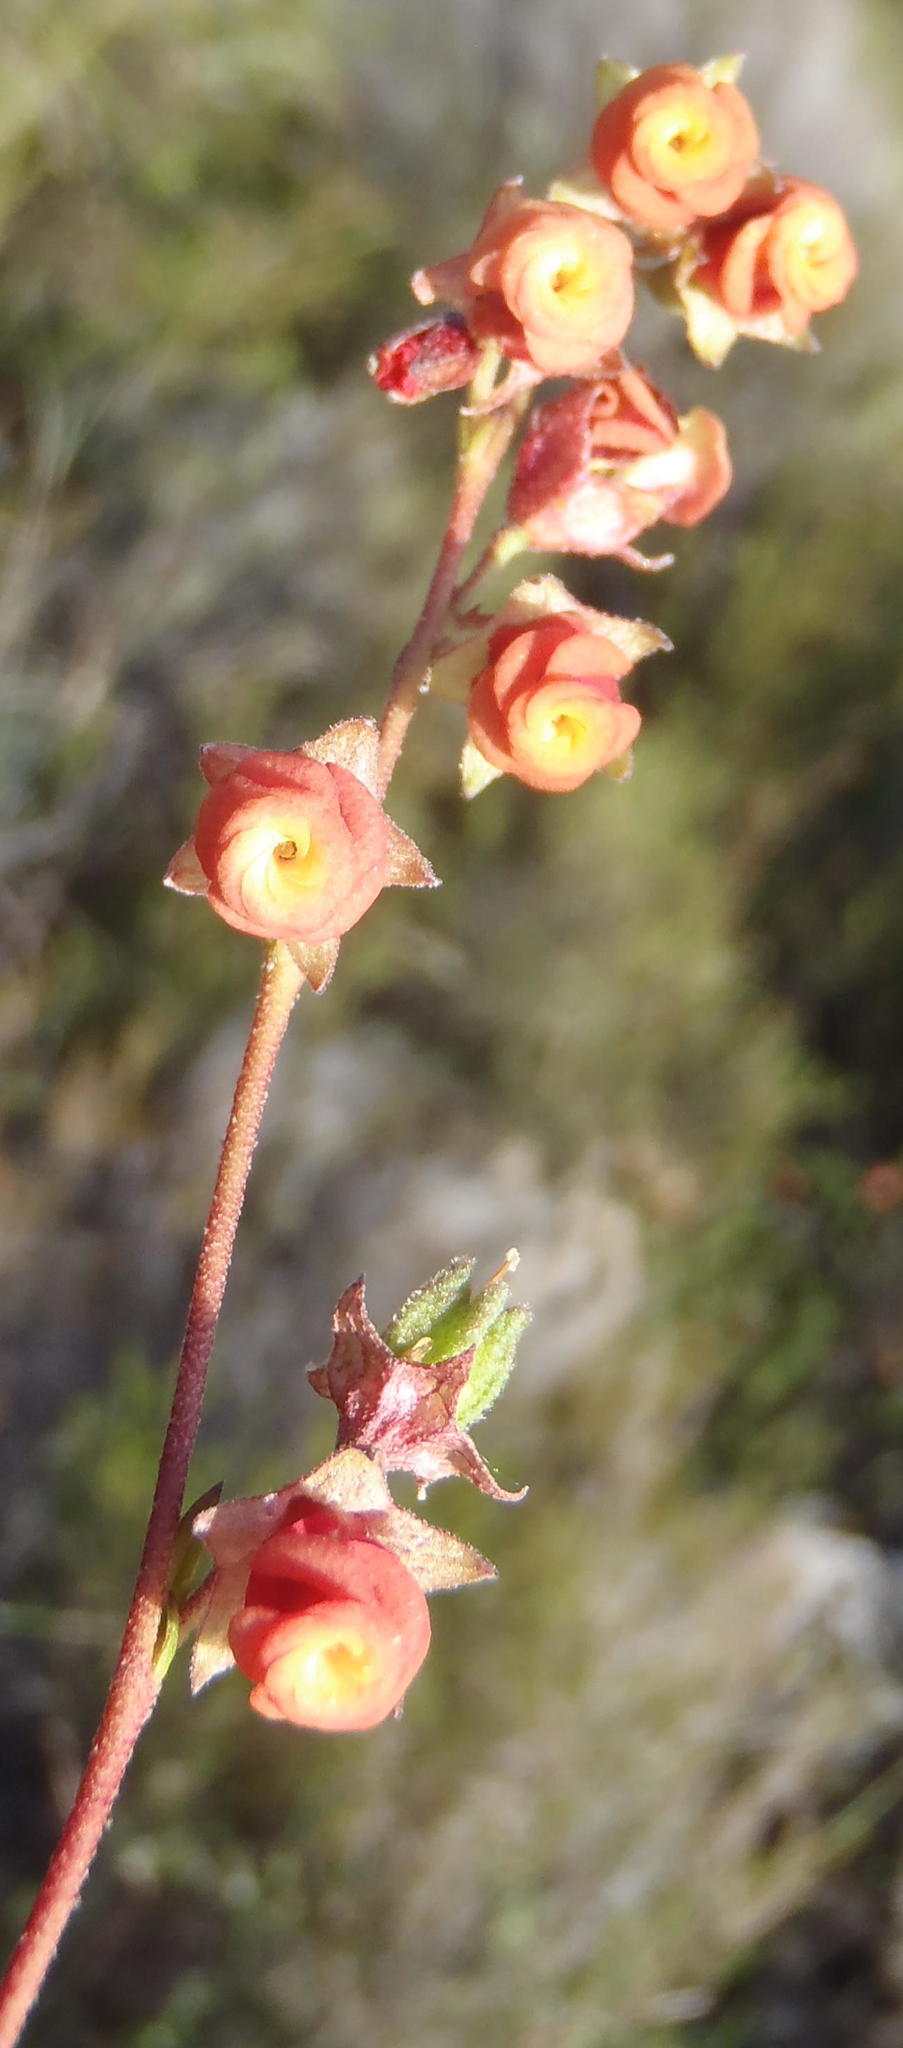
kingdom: Plantae
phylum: Tracheophyta
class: Magnoliopsida
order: Malvales
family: Malvaceae
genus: Hermannia
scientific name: Hermannia flammea
